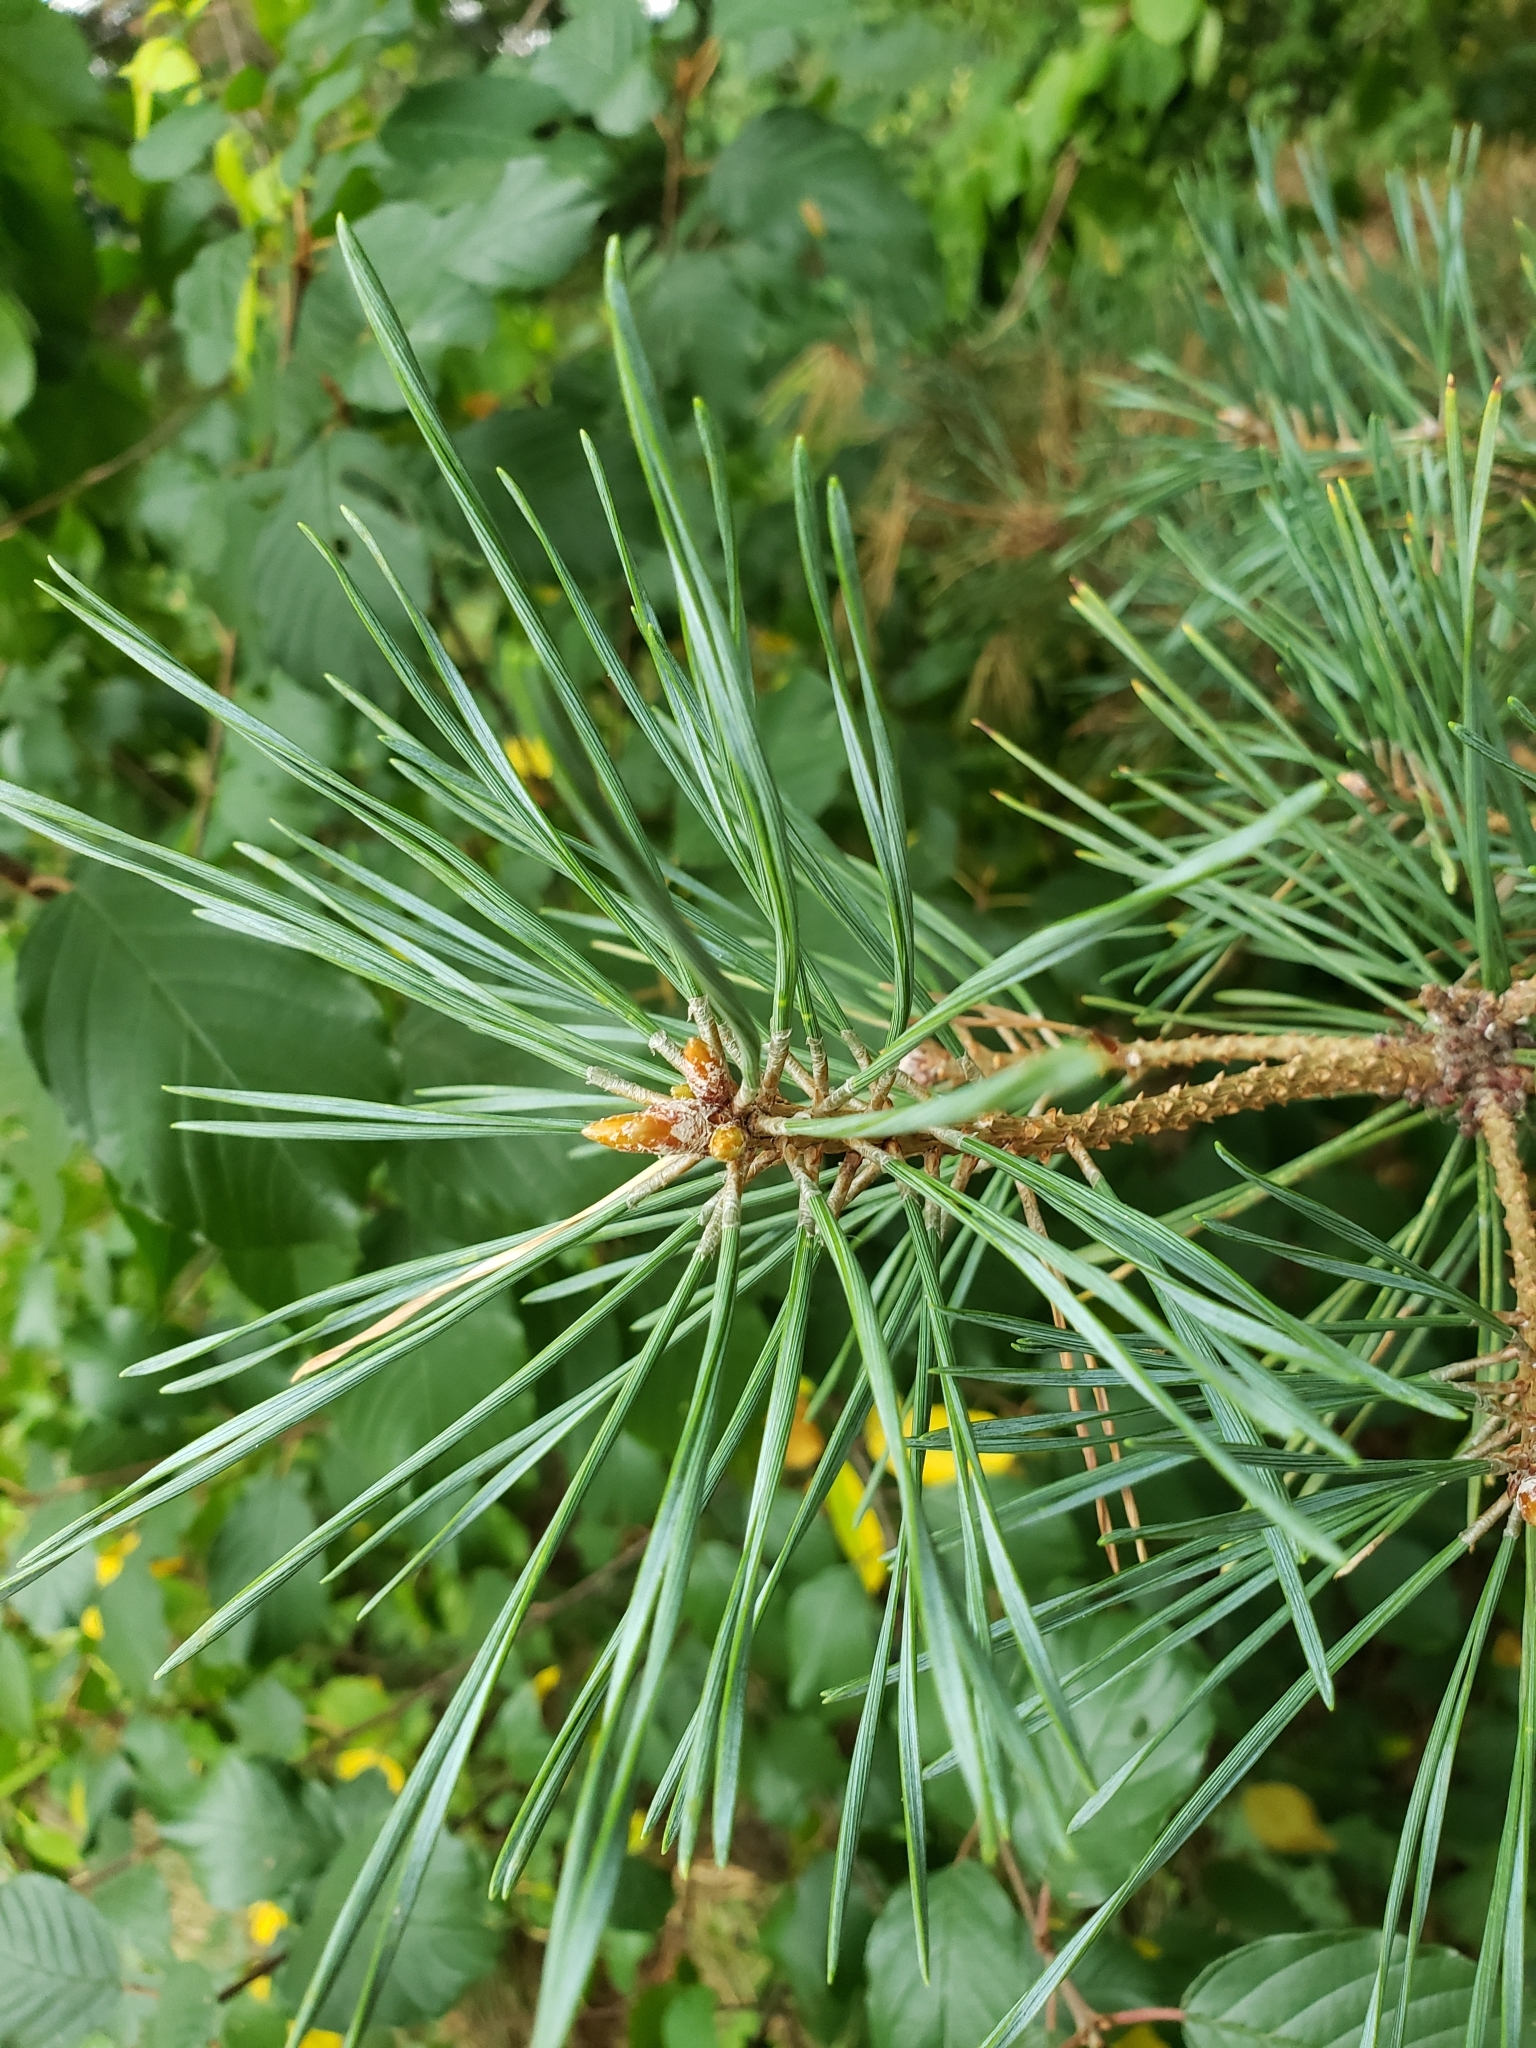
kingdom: Plantae
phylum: Tracheophyta
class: Pinopsida
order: Pinales
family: Pinaceae
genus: Pinus
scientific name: Pinus sylvestris
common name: Scots pine
